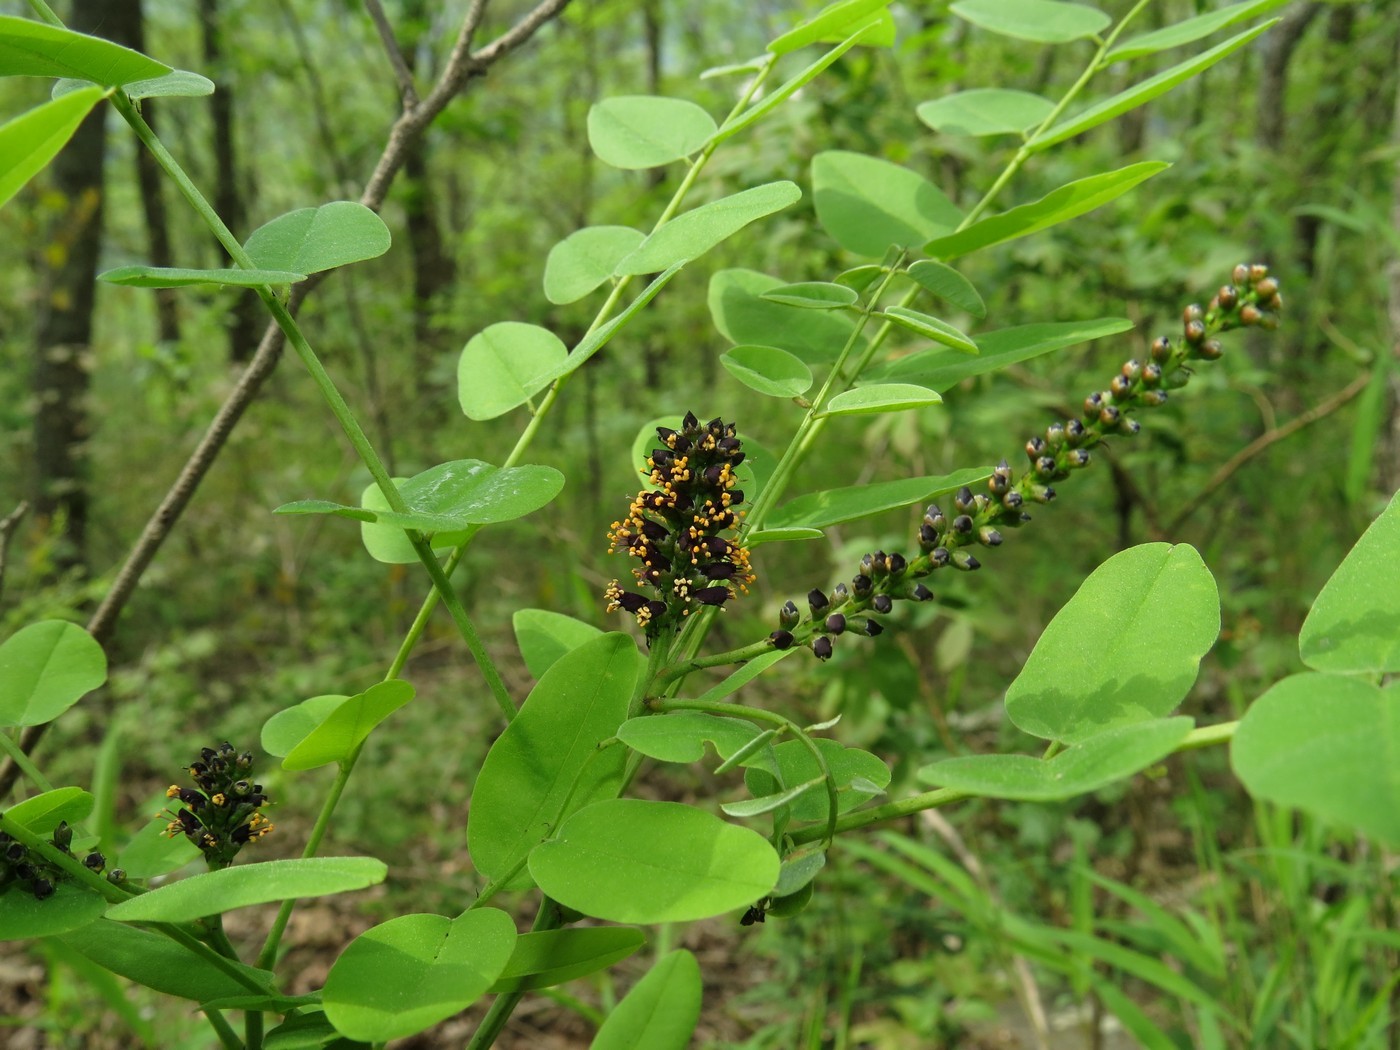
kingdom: Plantae
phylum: Tracheophyta
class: Magnoliopsida
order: Fabales
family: Fabaceae
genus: Amorpha
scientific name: Amorpha fruticosa
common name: False indigo
